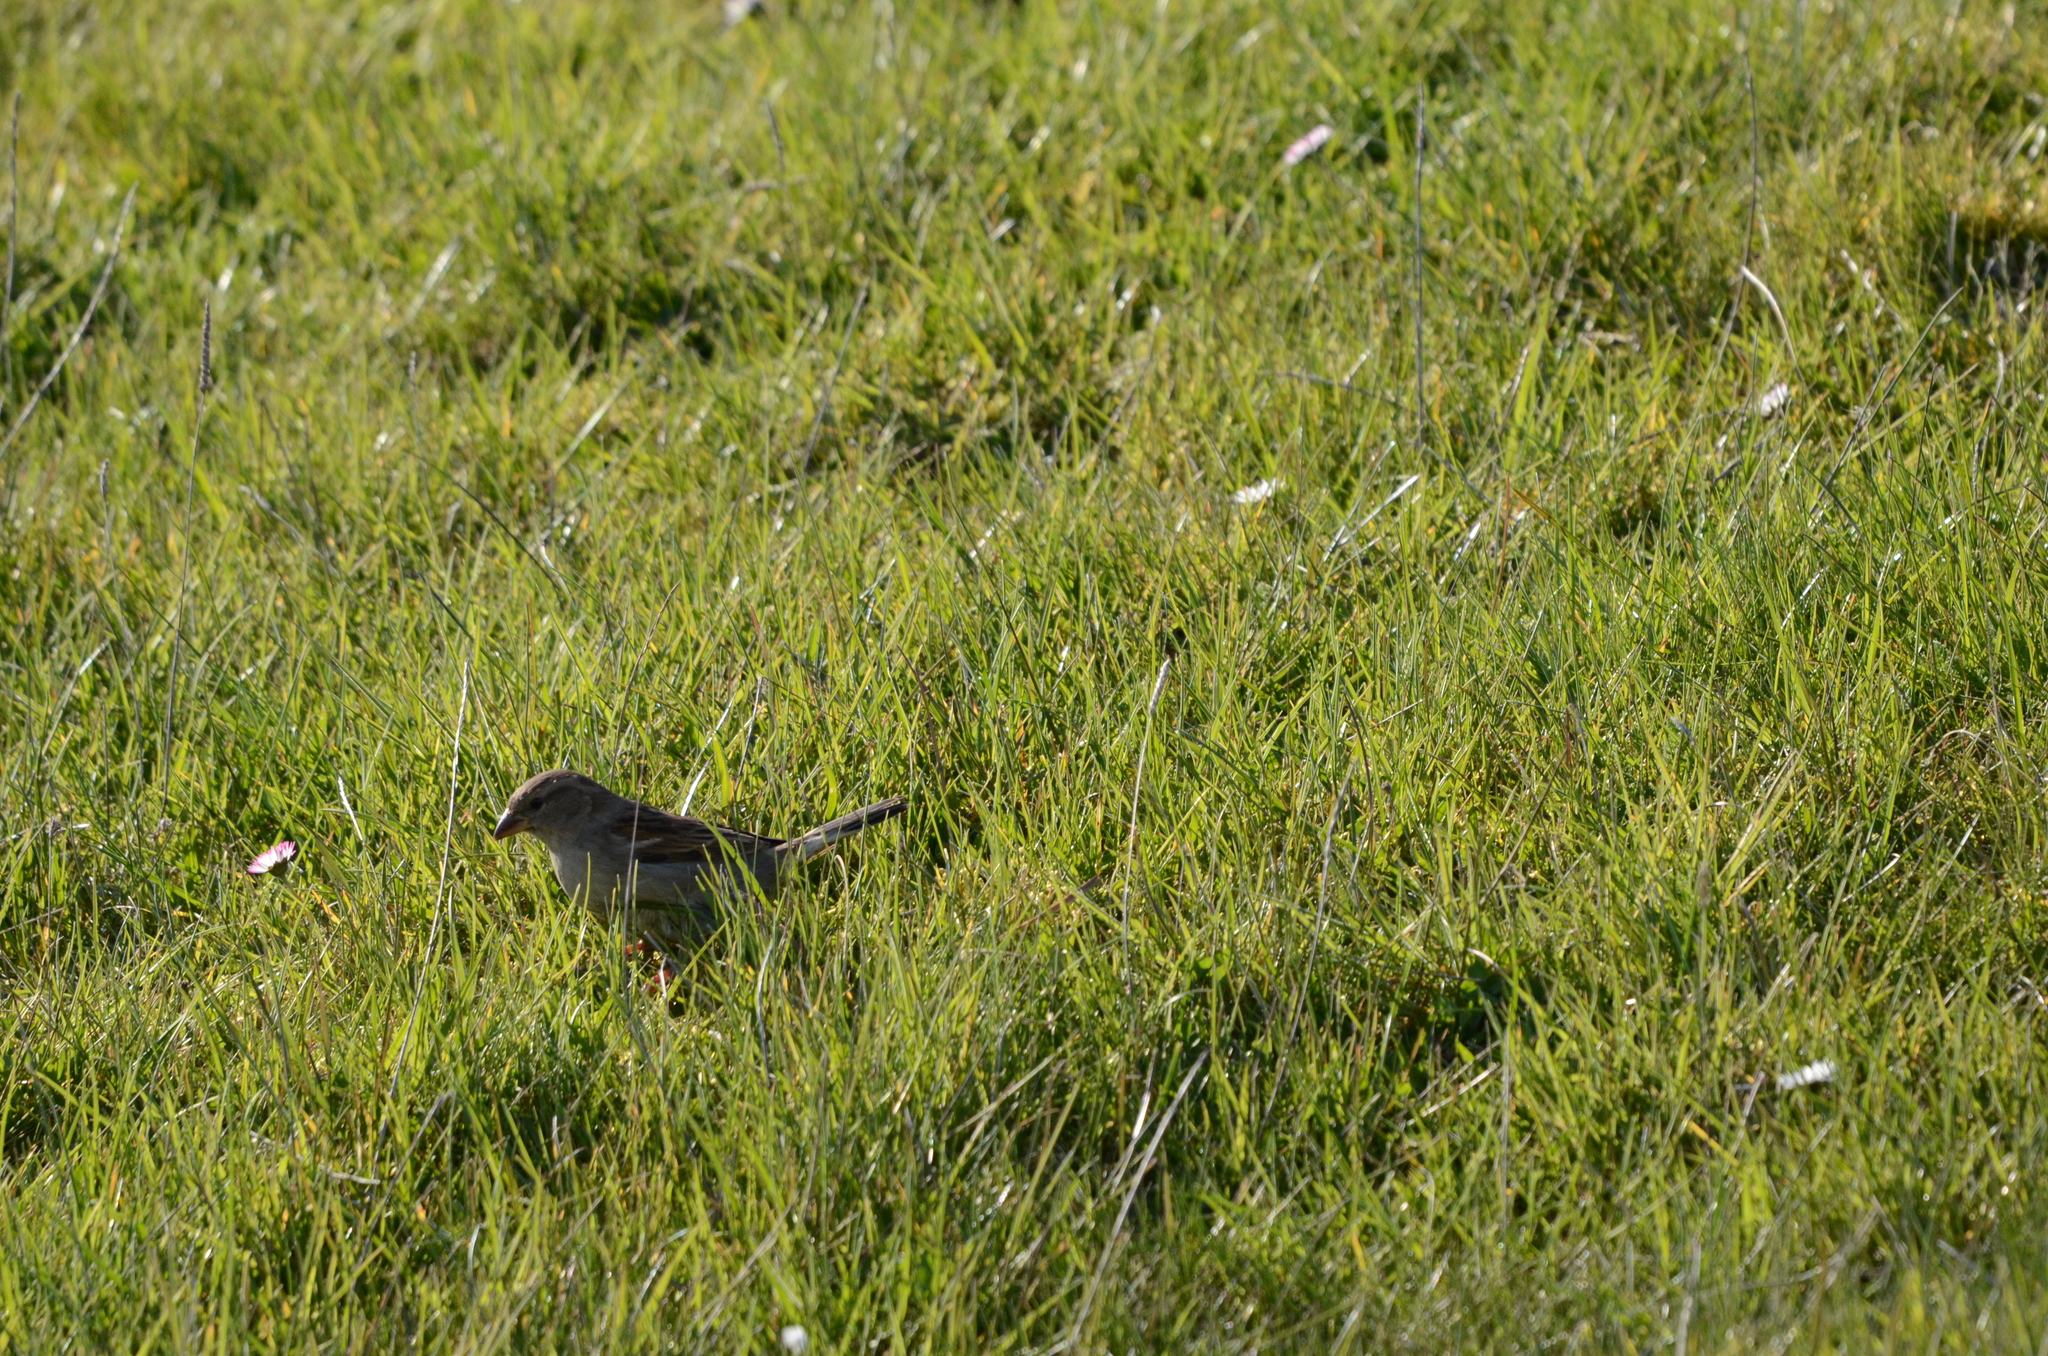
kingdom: Animalia
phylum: Chordata
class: Aves
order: Passeriformes
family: Passeridae
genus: Passer
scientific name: Passer domesticus
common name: House sparrow
